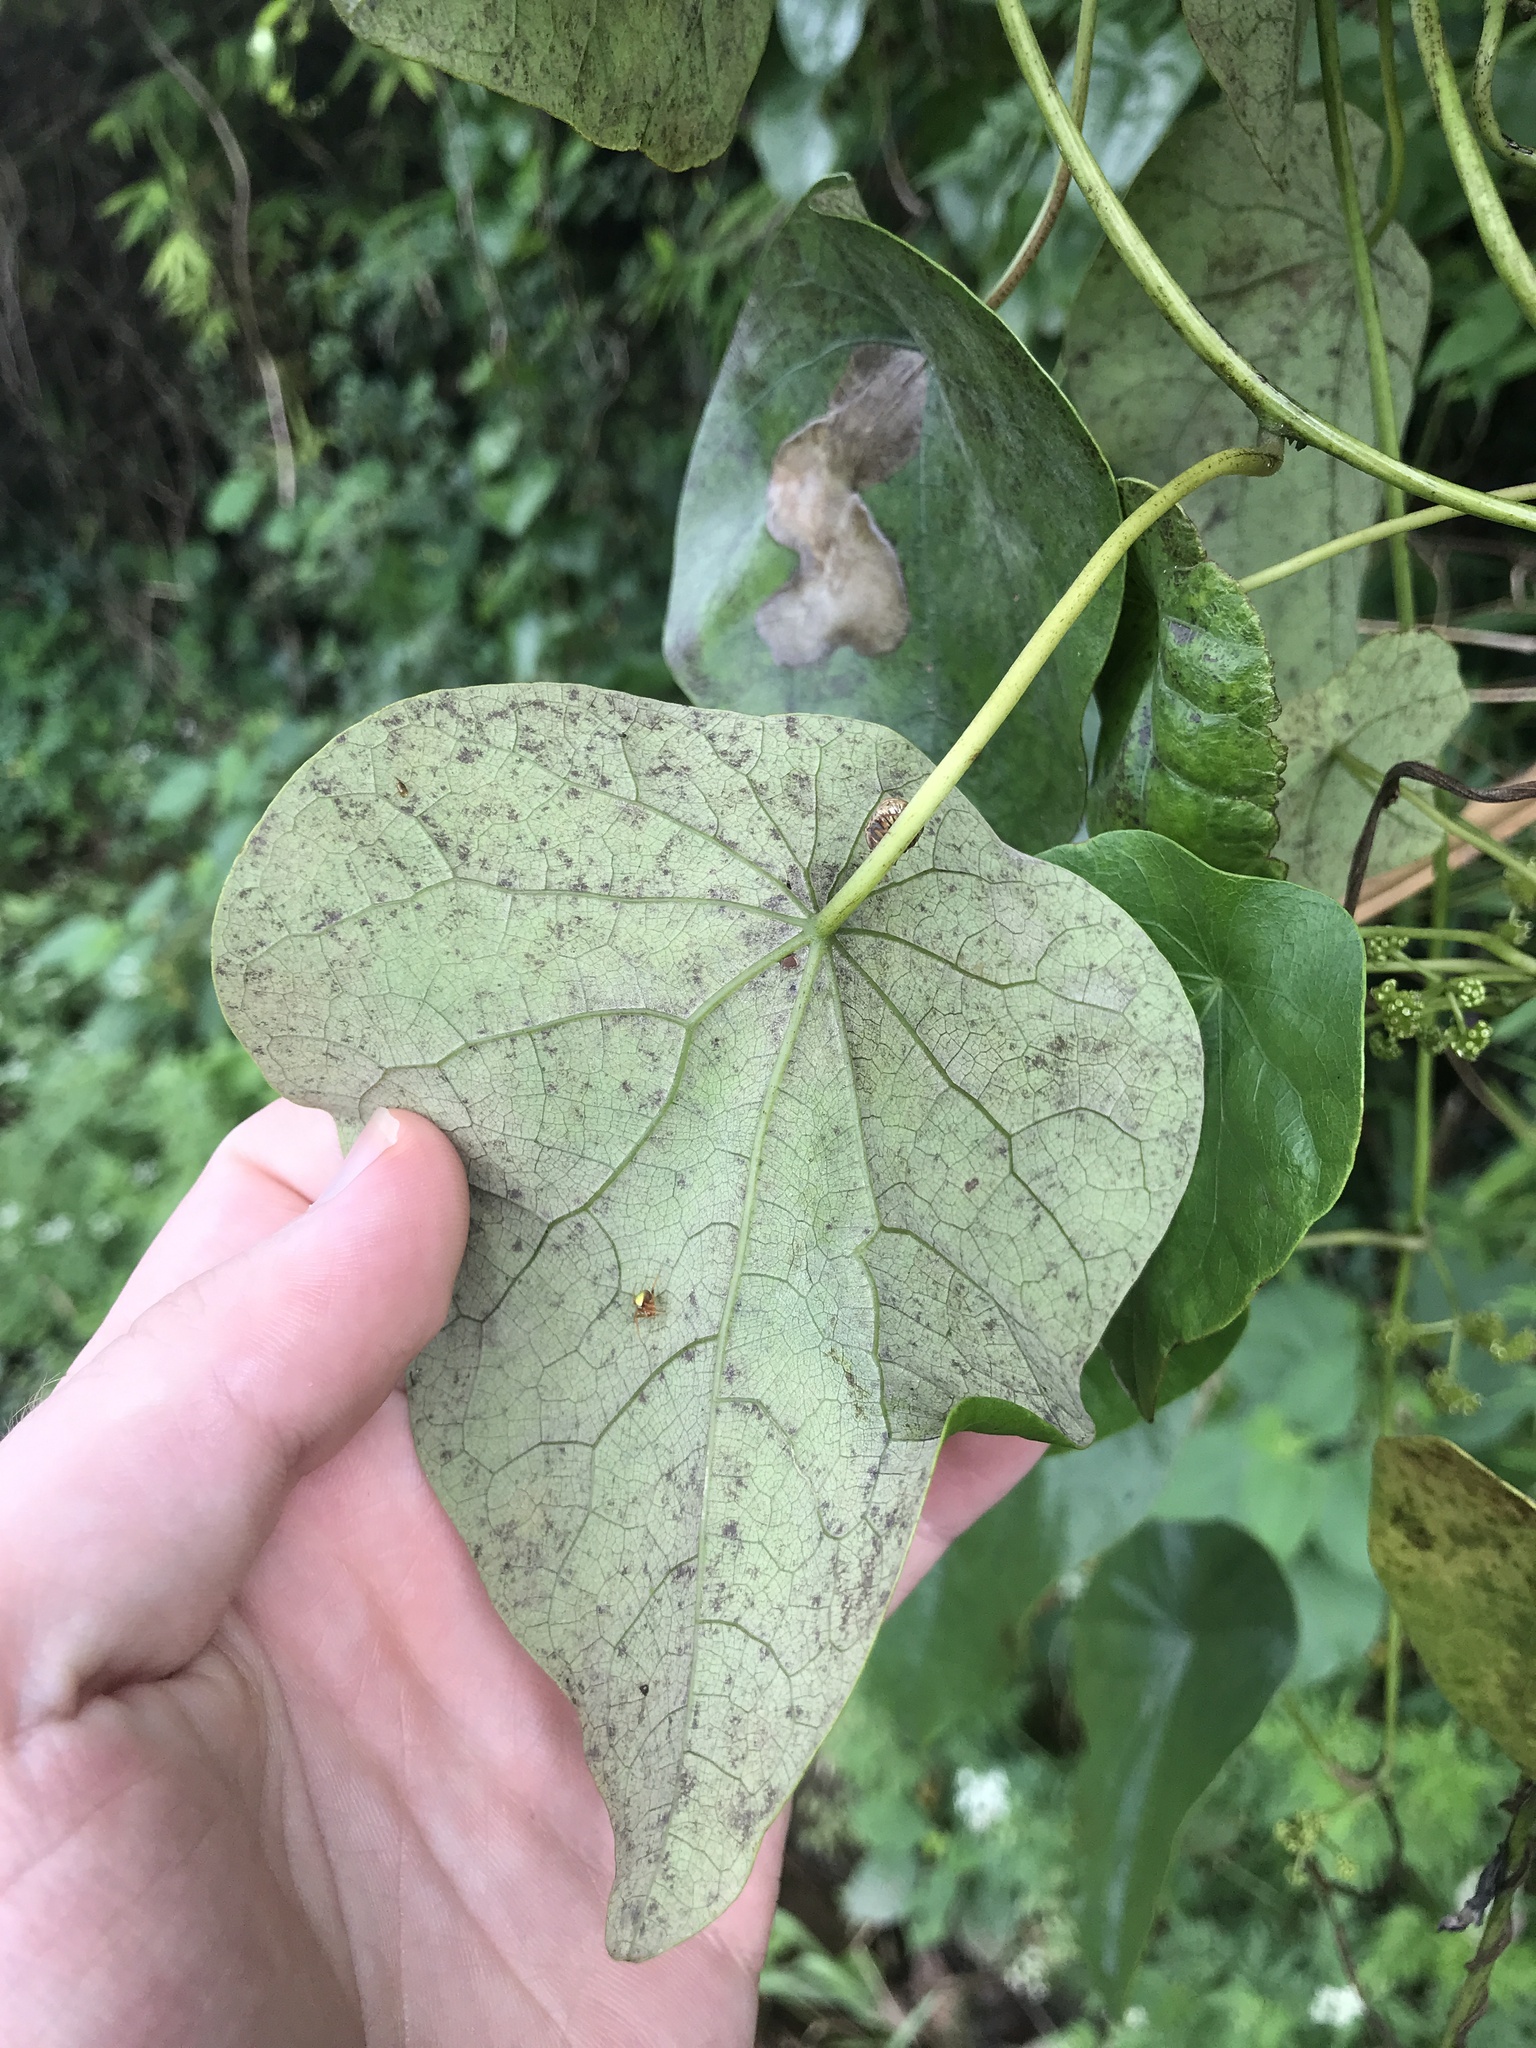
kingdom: Plantae
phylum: Tracheophyta
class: Magnoliopsida
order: Ranunculales
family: Menispermaceae
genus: Stephania
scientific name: Stephania japonica
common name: Snake vine
